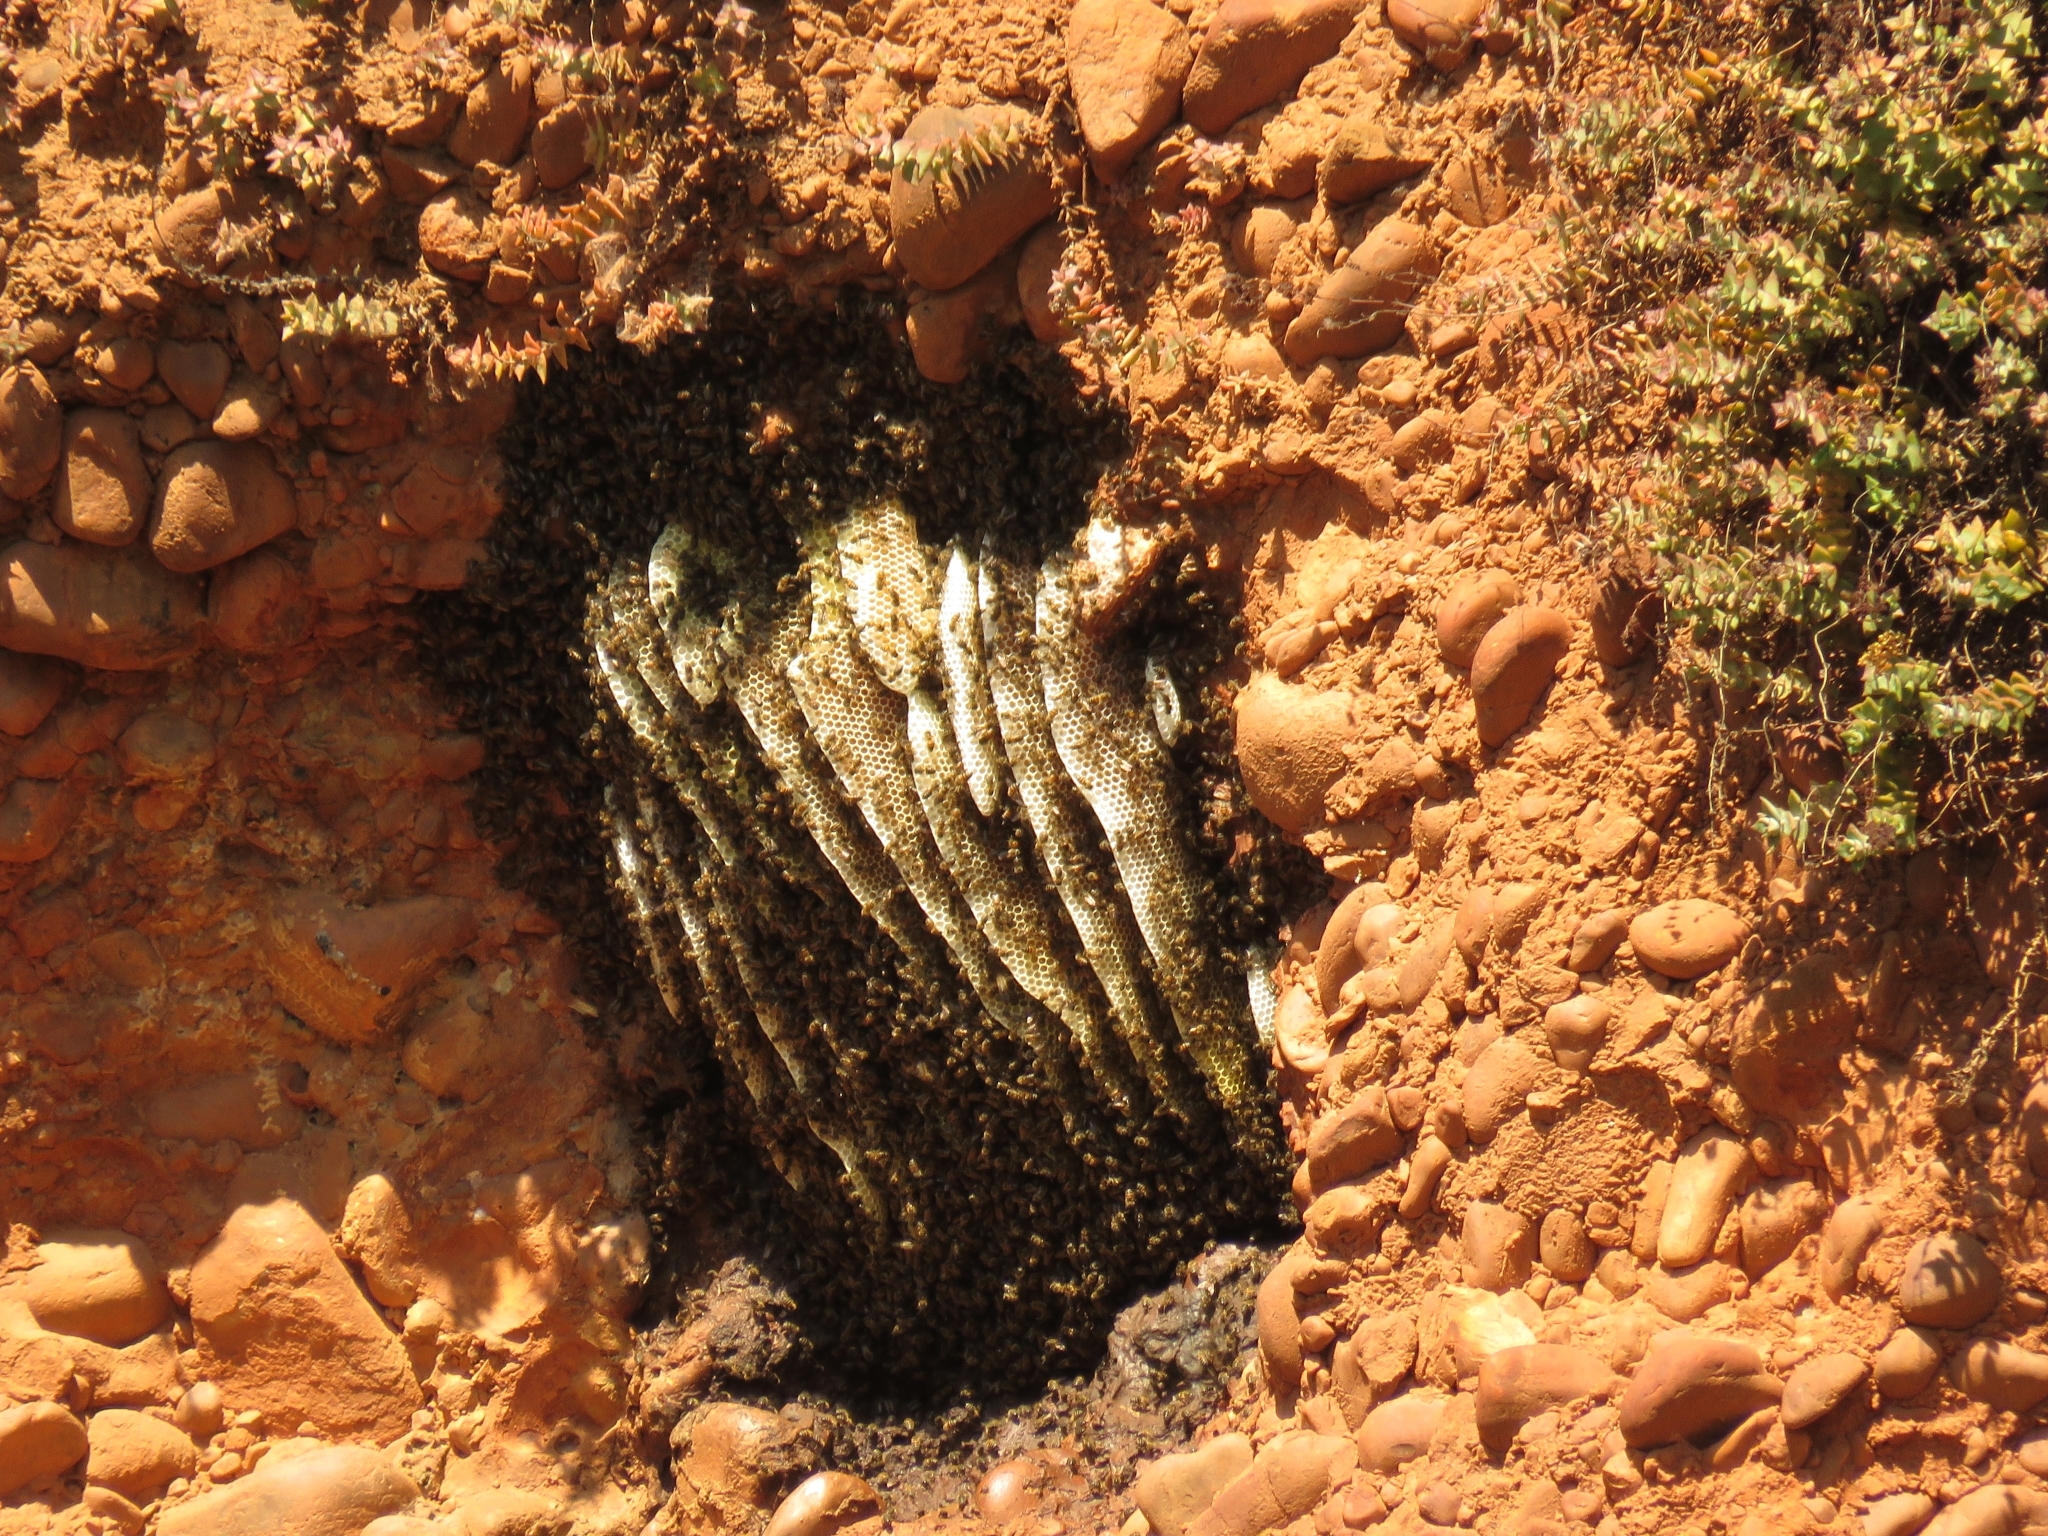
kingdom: Animalia
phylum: Arthropoda
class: Insecta
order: Hymenoptera
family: Apidae
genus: Apis
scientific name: Apis mellifera
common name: Honey bee
